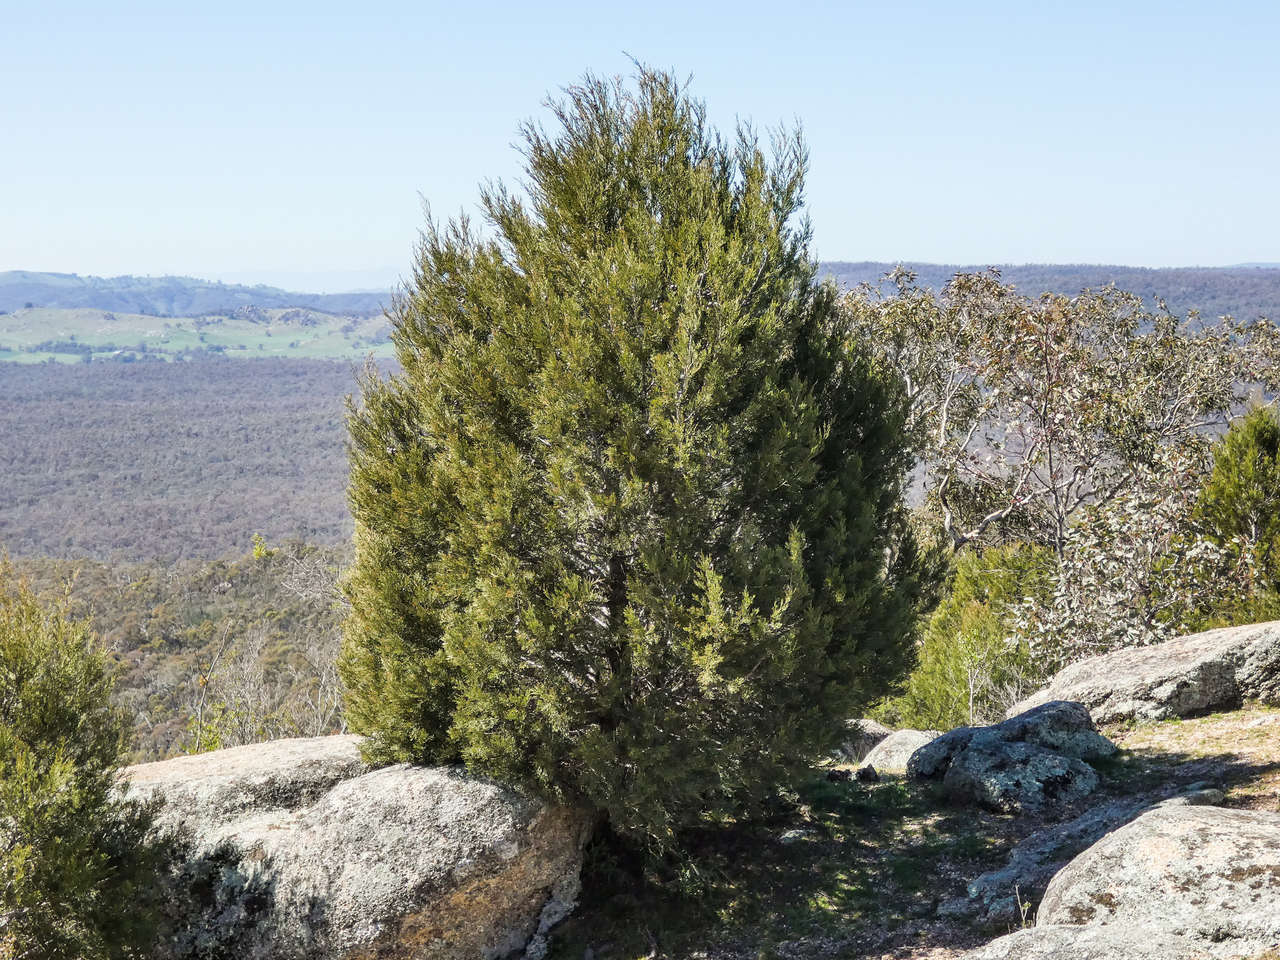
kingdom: Plantae
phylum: Tracheophyta
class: Pinopsida
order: Pinales
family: Cupressaceae
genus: Callitris
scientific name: Callitris endlicheri
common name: Black cypress-pine
